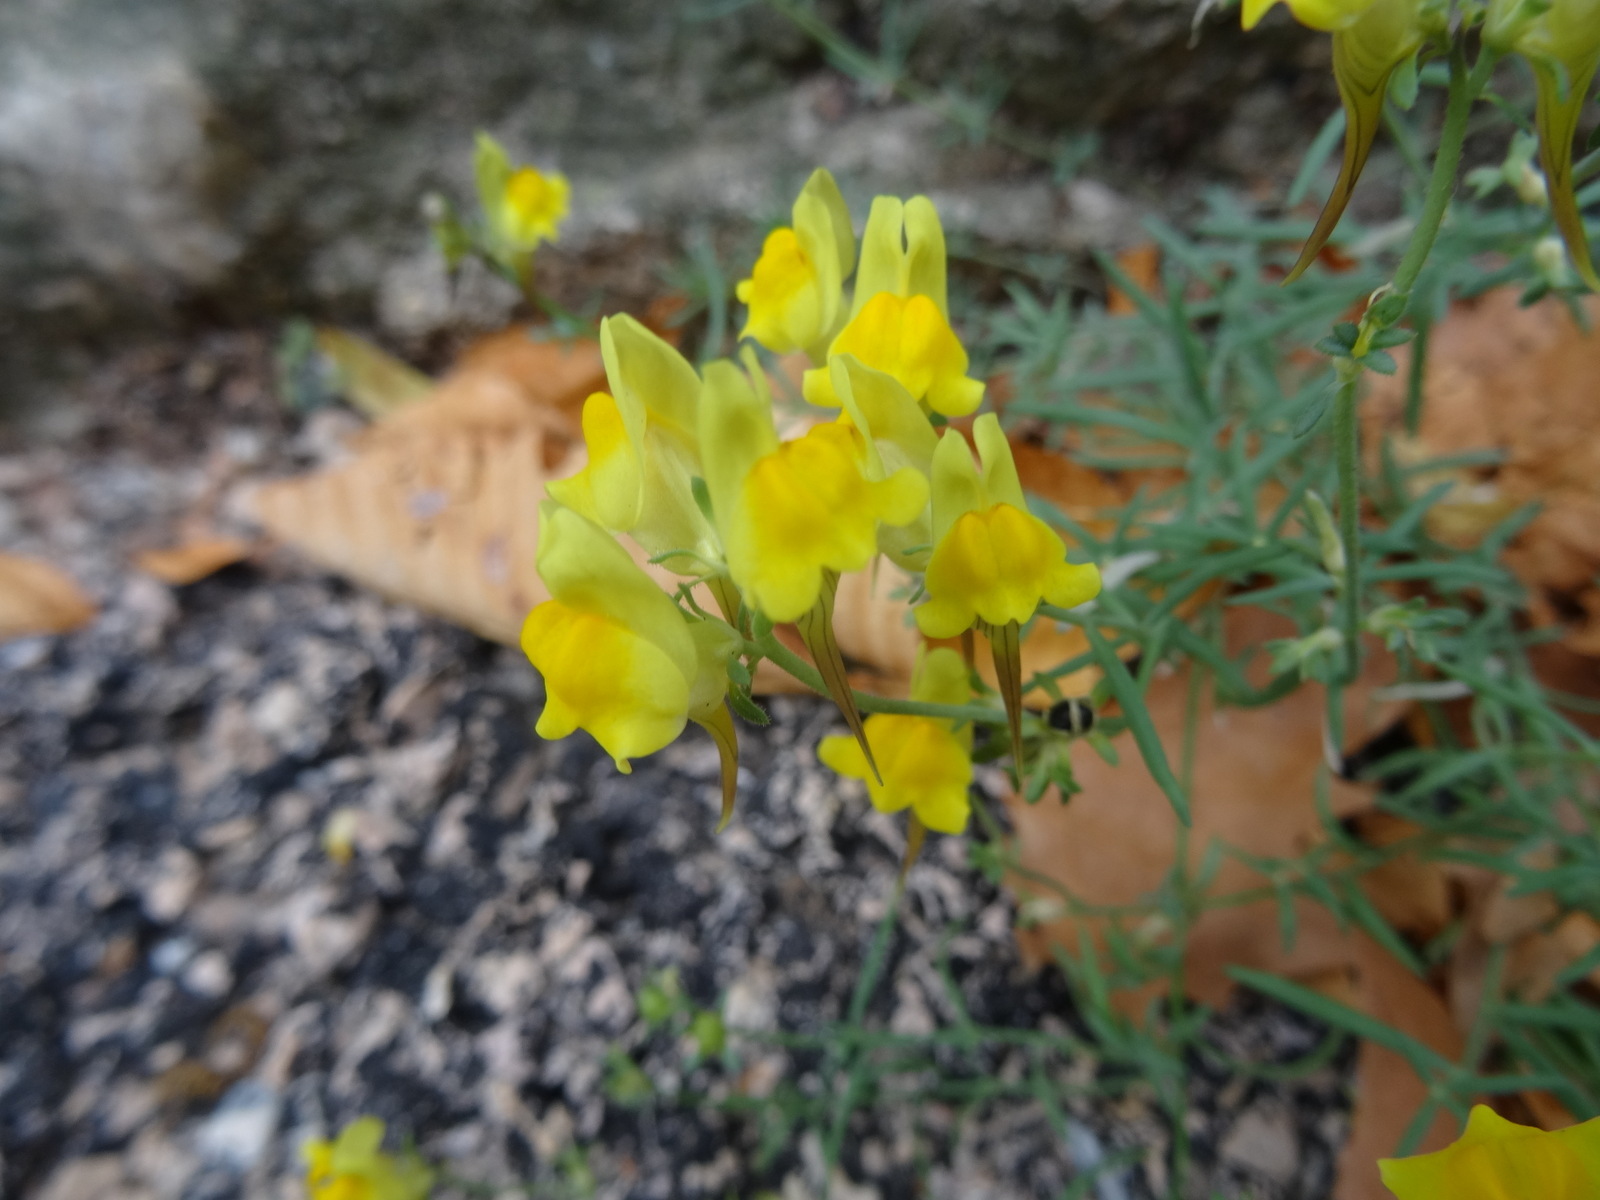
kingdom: Plantae
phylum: Tracheophyta
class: Magnoliopsida
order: Lamiales
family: Plantaginaceae
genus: Linaria
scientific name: Linaria vulgaris
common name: Butter and eggs
